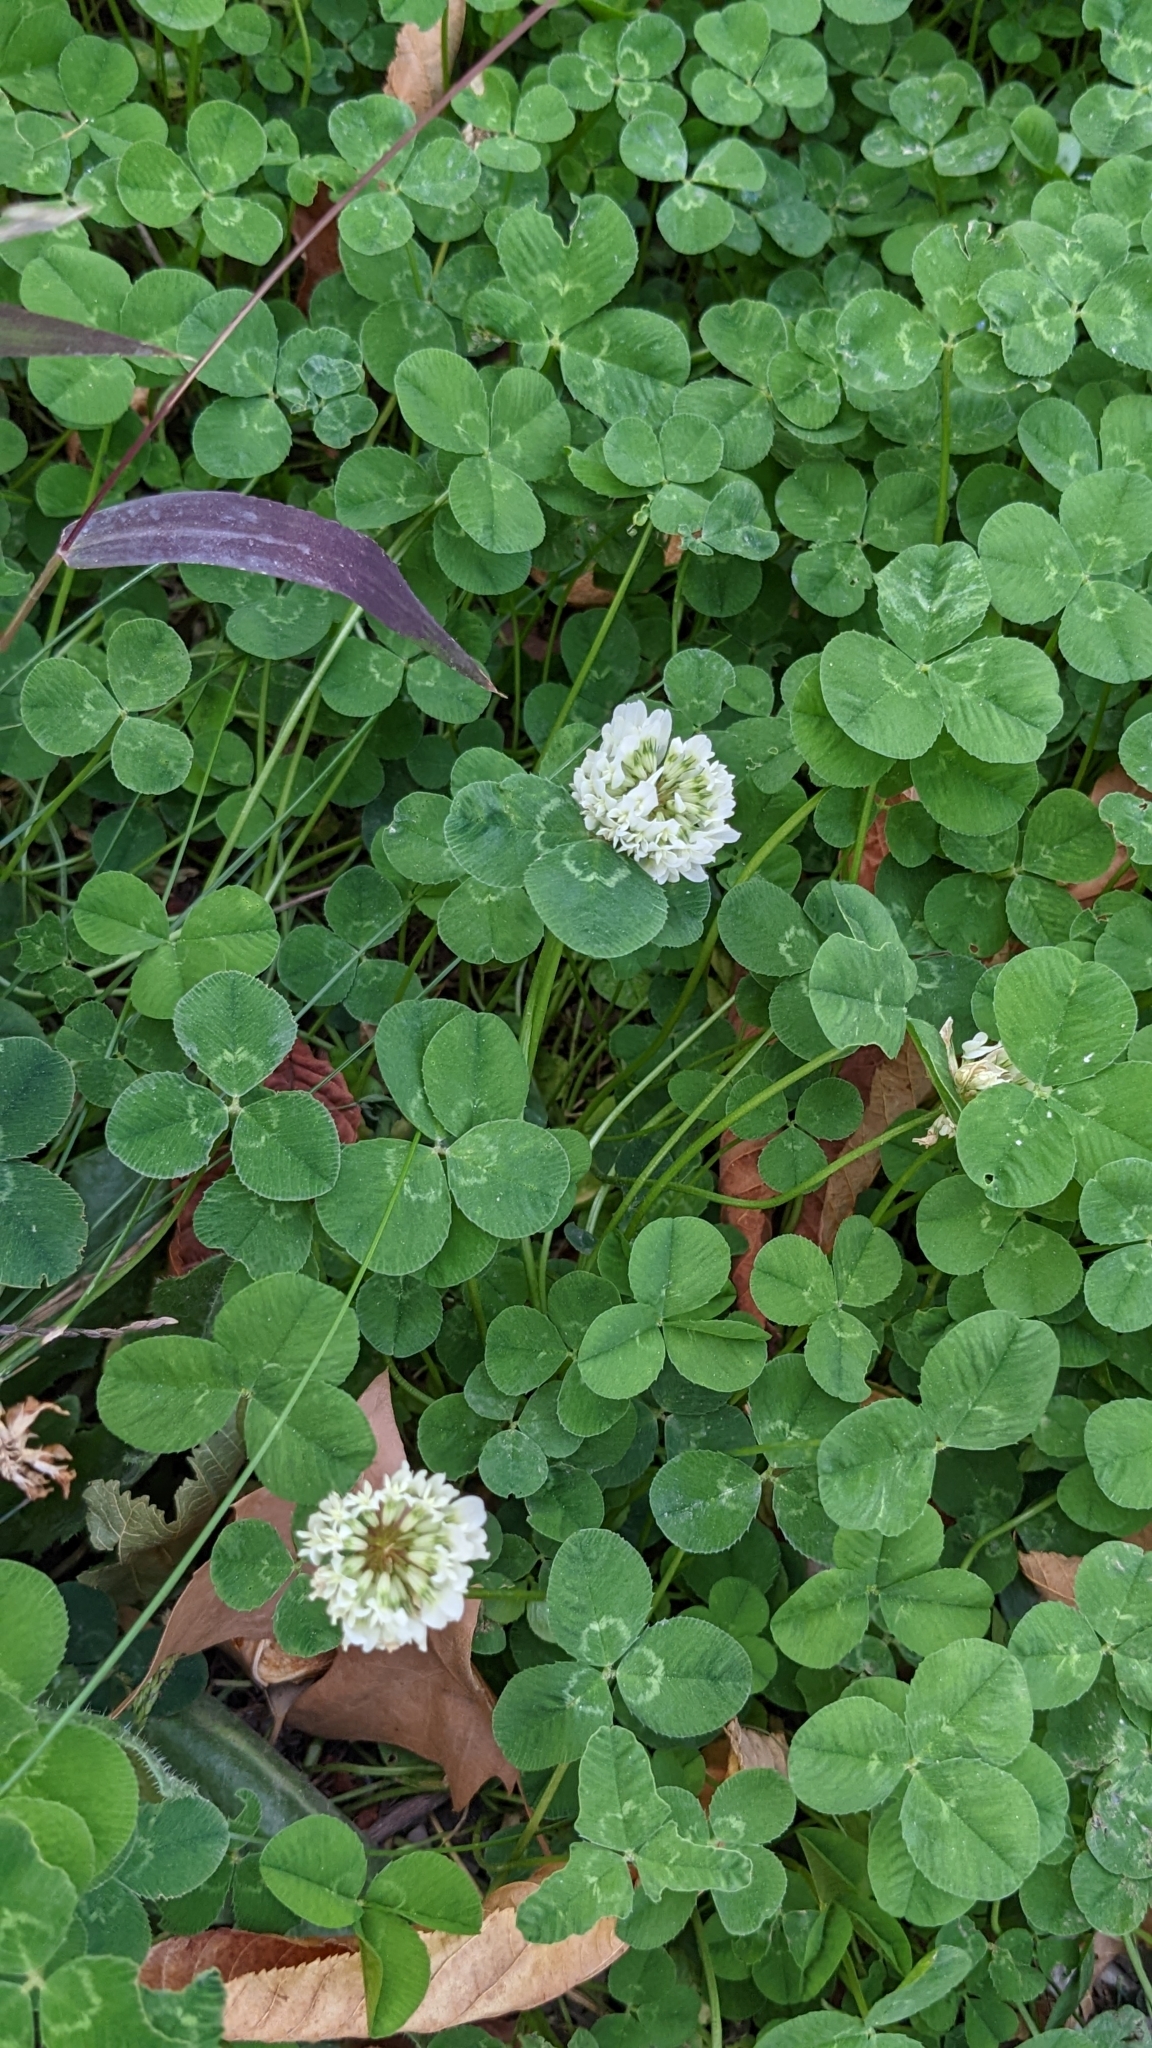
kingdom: Plantae
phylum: Tracheophyta
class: Magnoliopsida
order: Fabales
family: Fabaceae
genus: Trifolium
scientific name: Trifolium repens
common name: White clover
